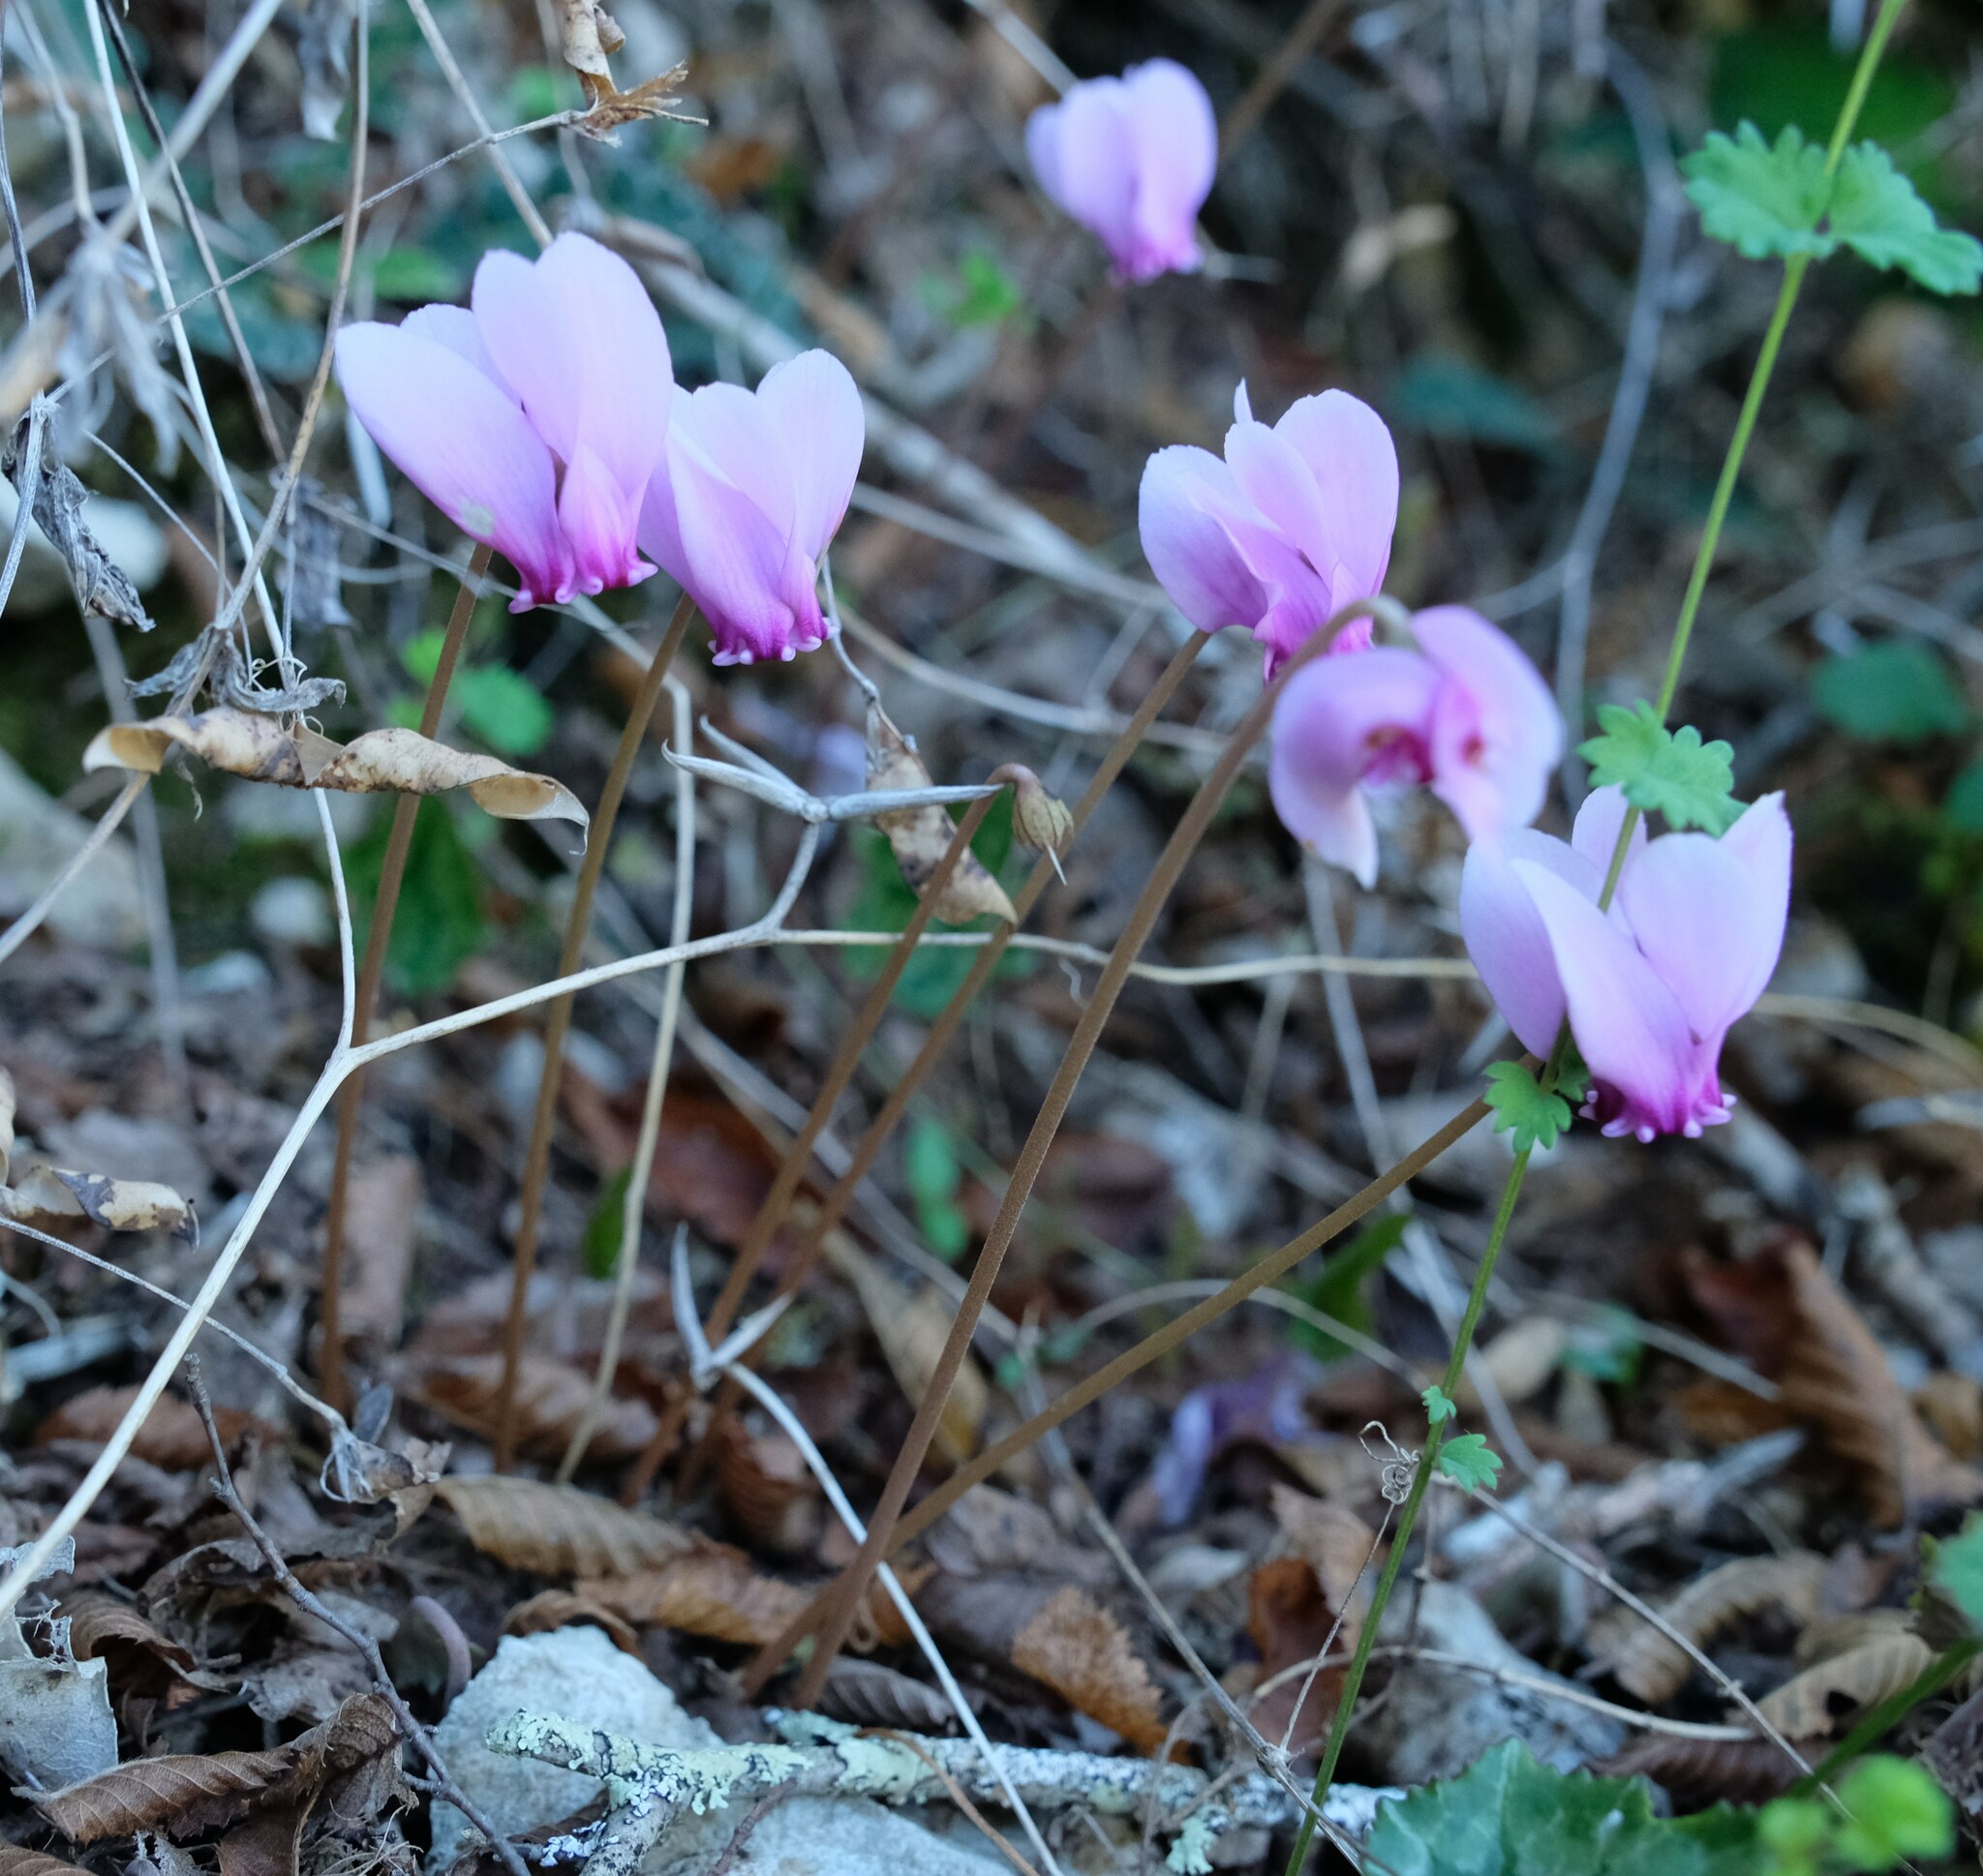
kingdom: Plantae
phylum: Tracheophyta
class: Magnoliopsida
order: Ericales
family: Primulaceae
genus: Cyclamen
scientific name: Cyclamen hederifolium
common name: Sowbread
